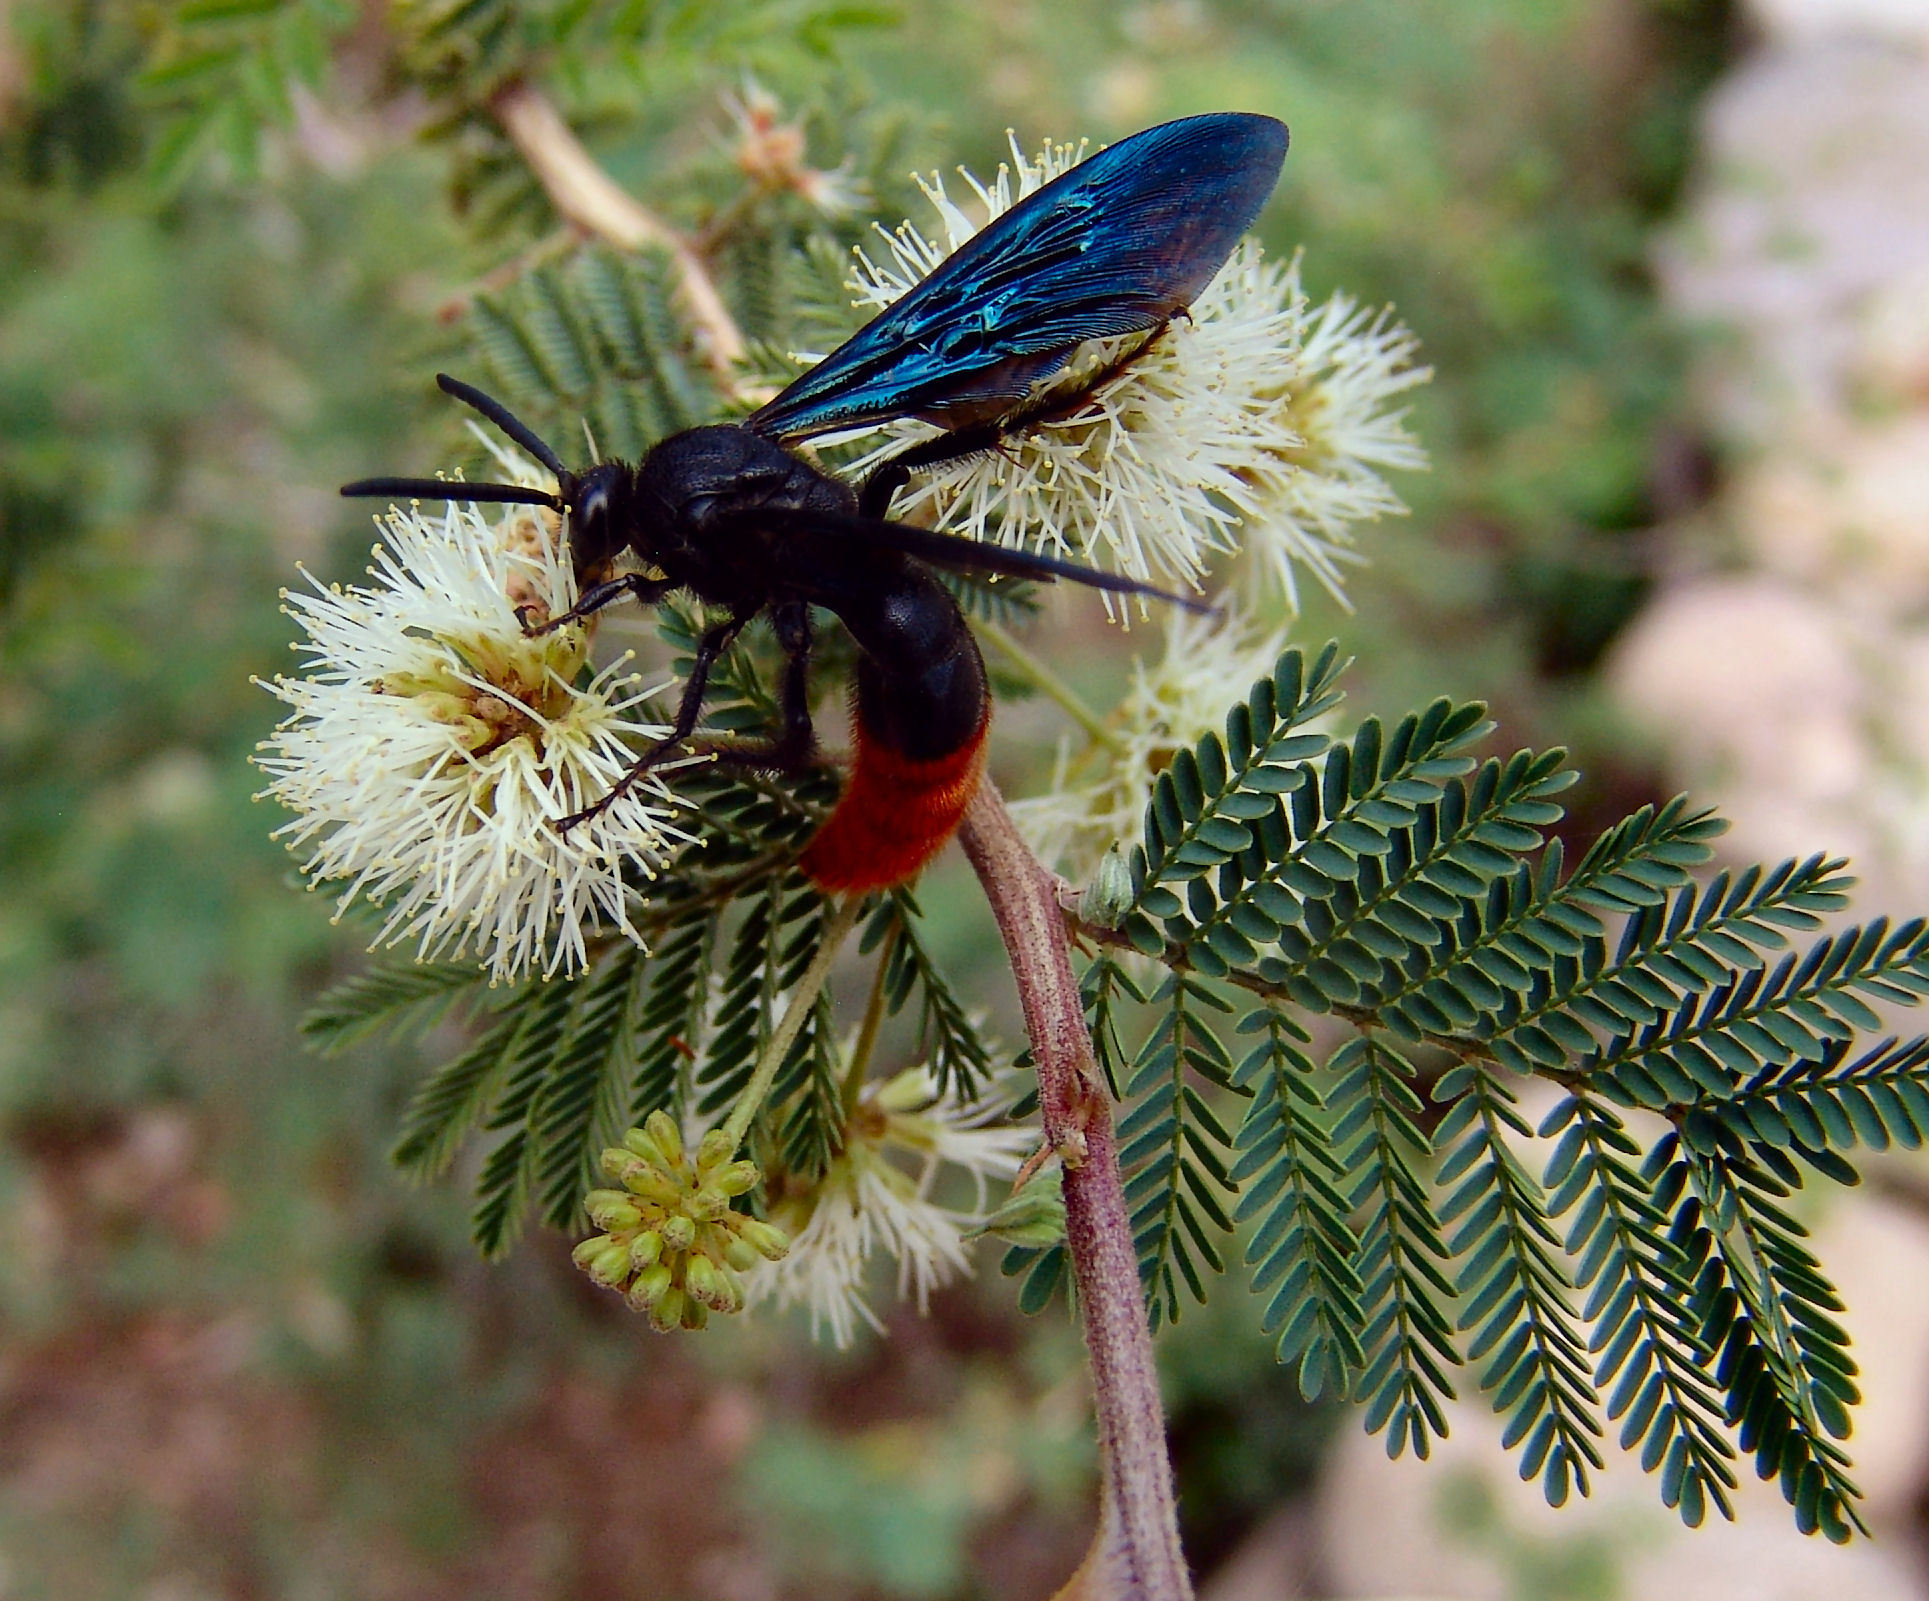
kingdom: Animalia
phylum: Arthropoda
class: Insecta
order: Hymenoptera
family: Scoliidae
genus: Triscolia
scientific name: Triscolia ardens
